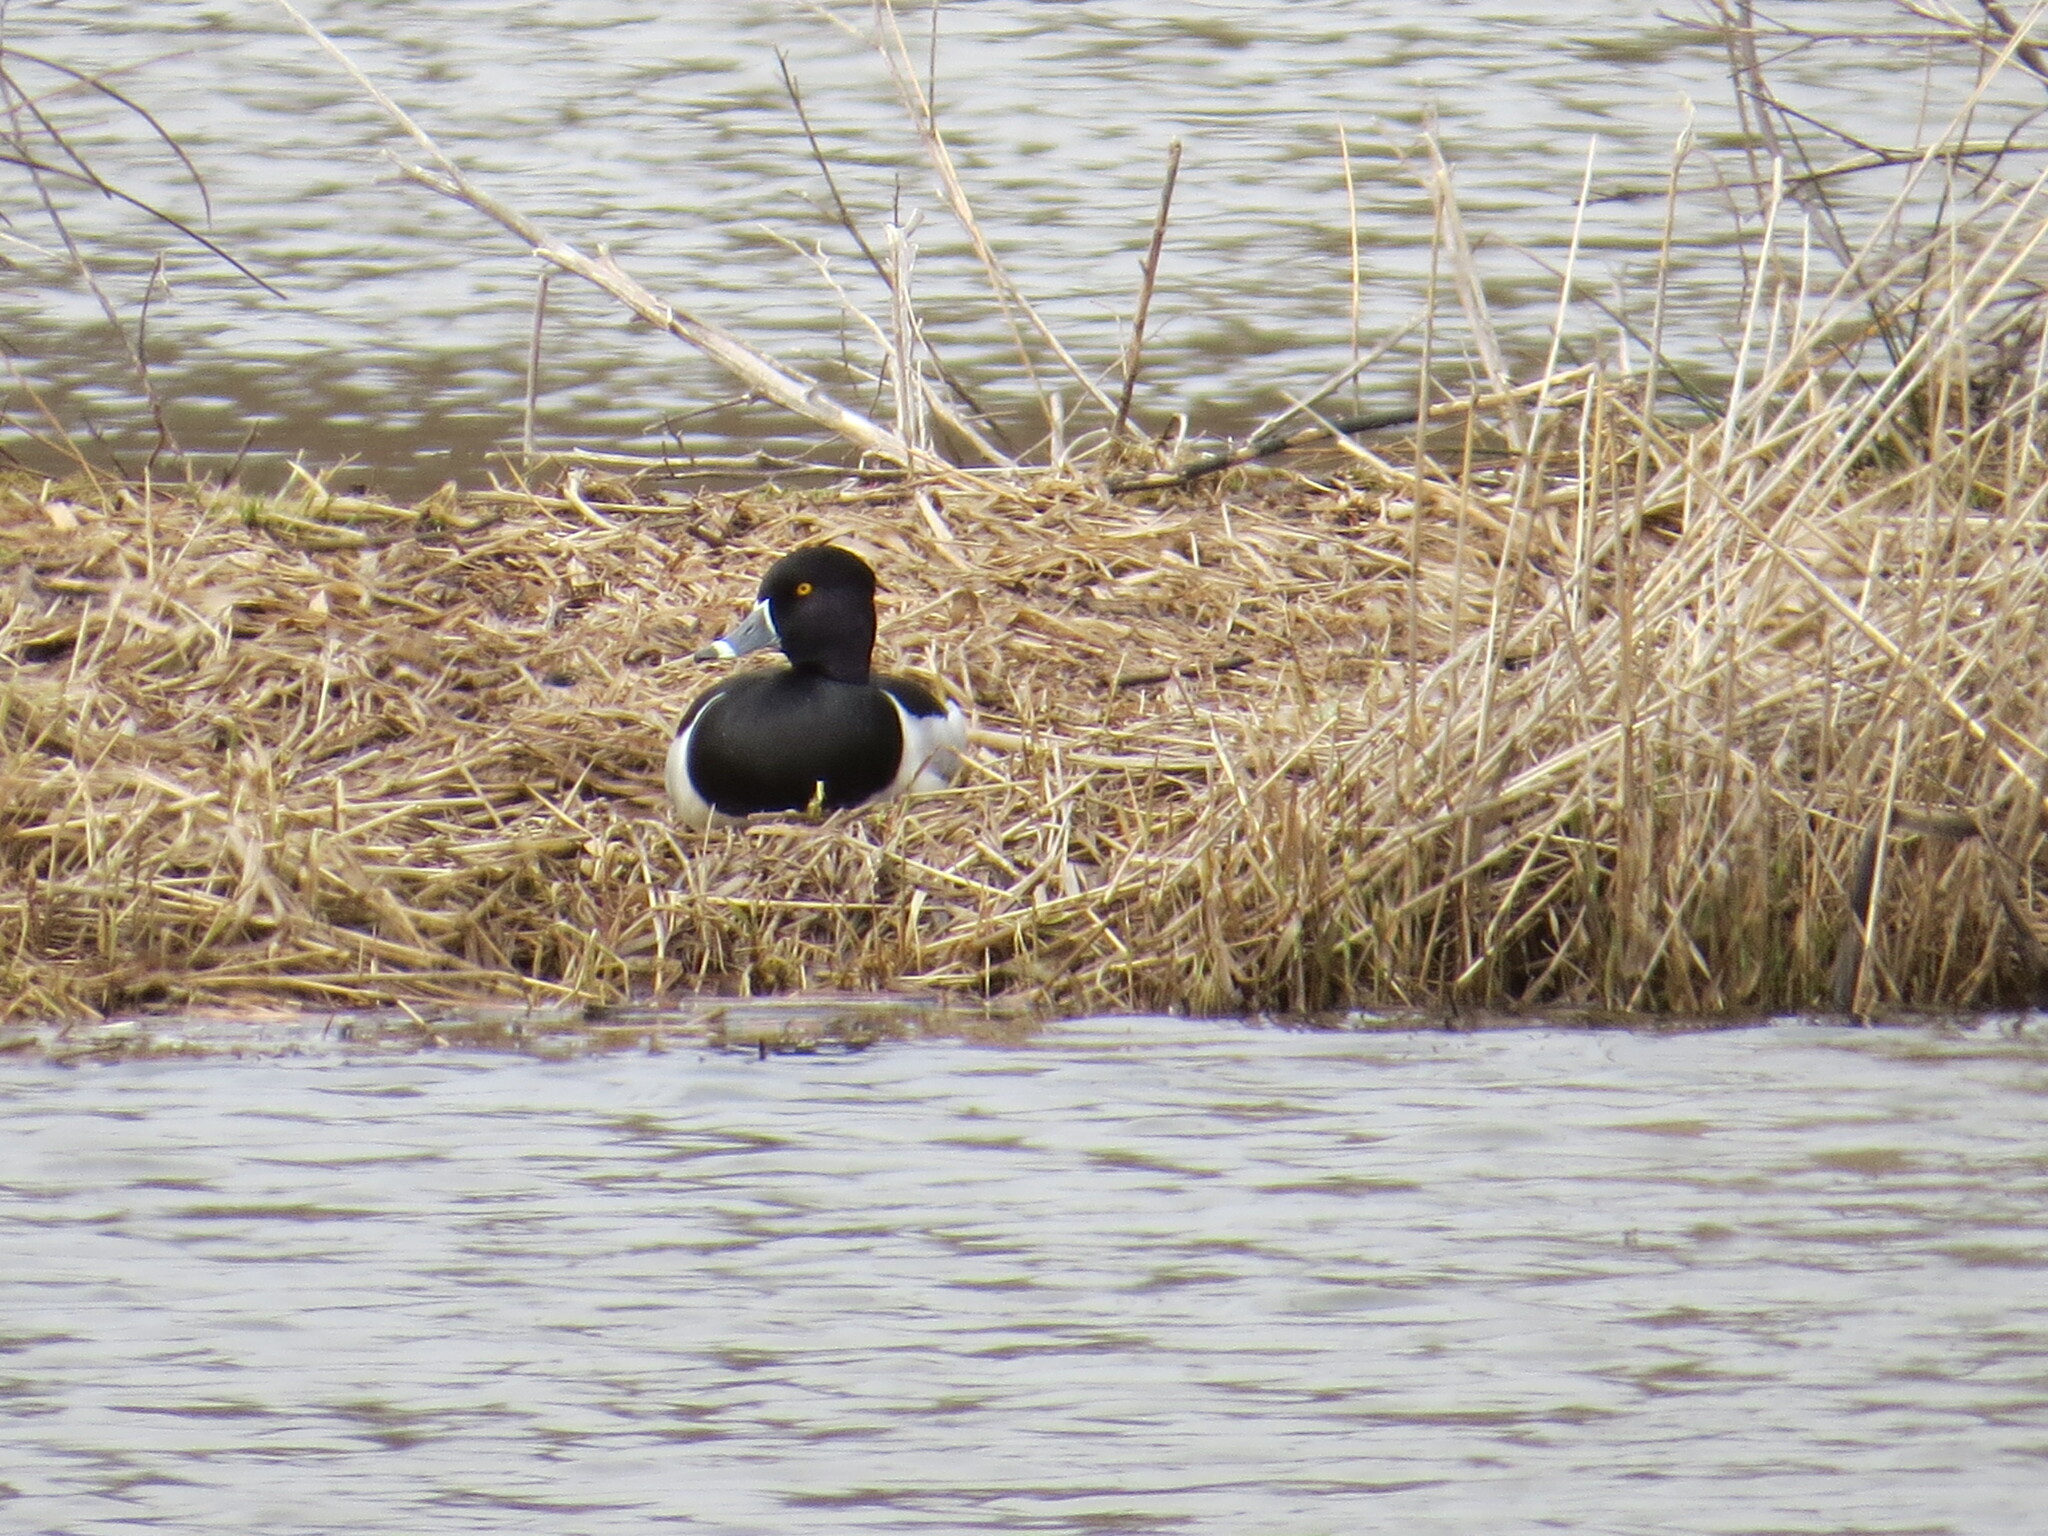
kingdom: Animalia
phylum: Chordata
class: Aves
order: Anseriformes
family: Anatidae
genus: Aythya
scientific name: Aythya collaris
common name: Ring-necked duck
